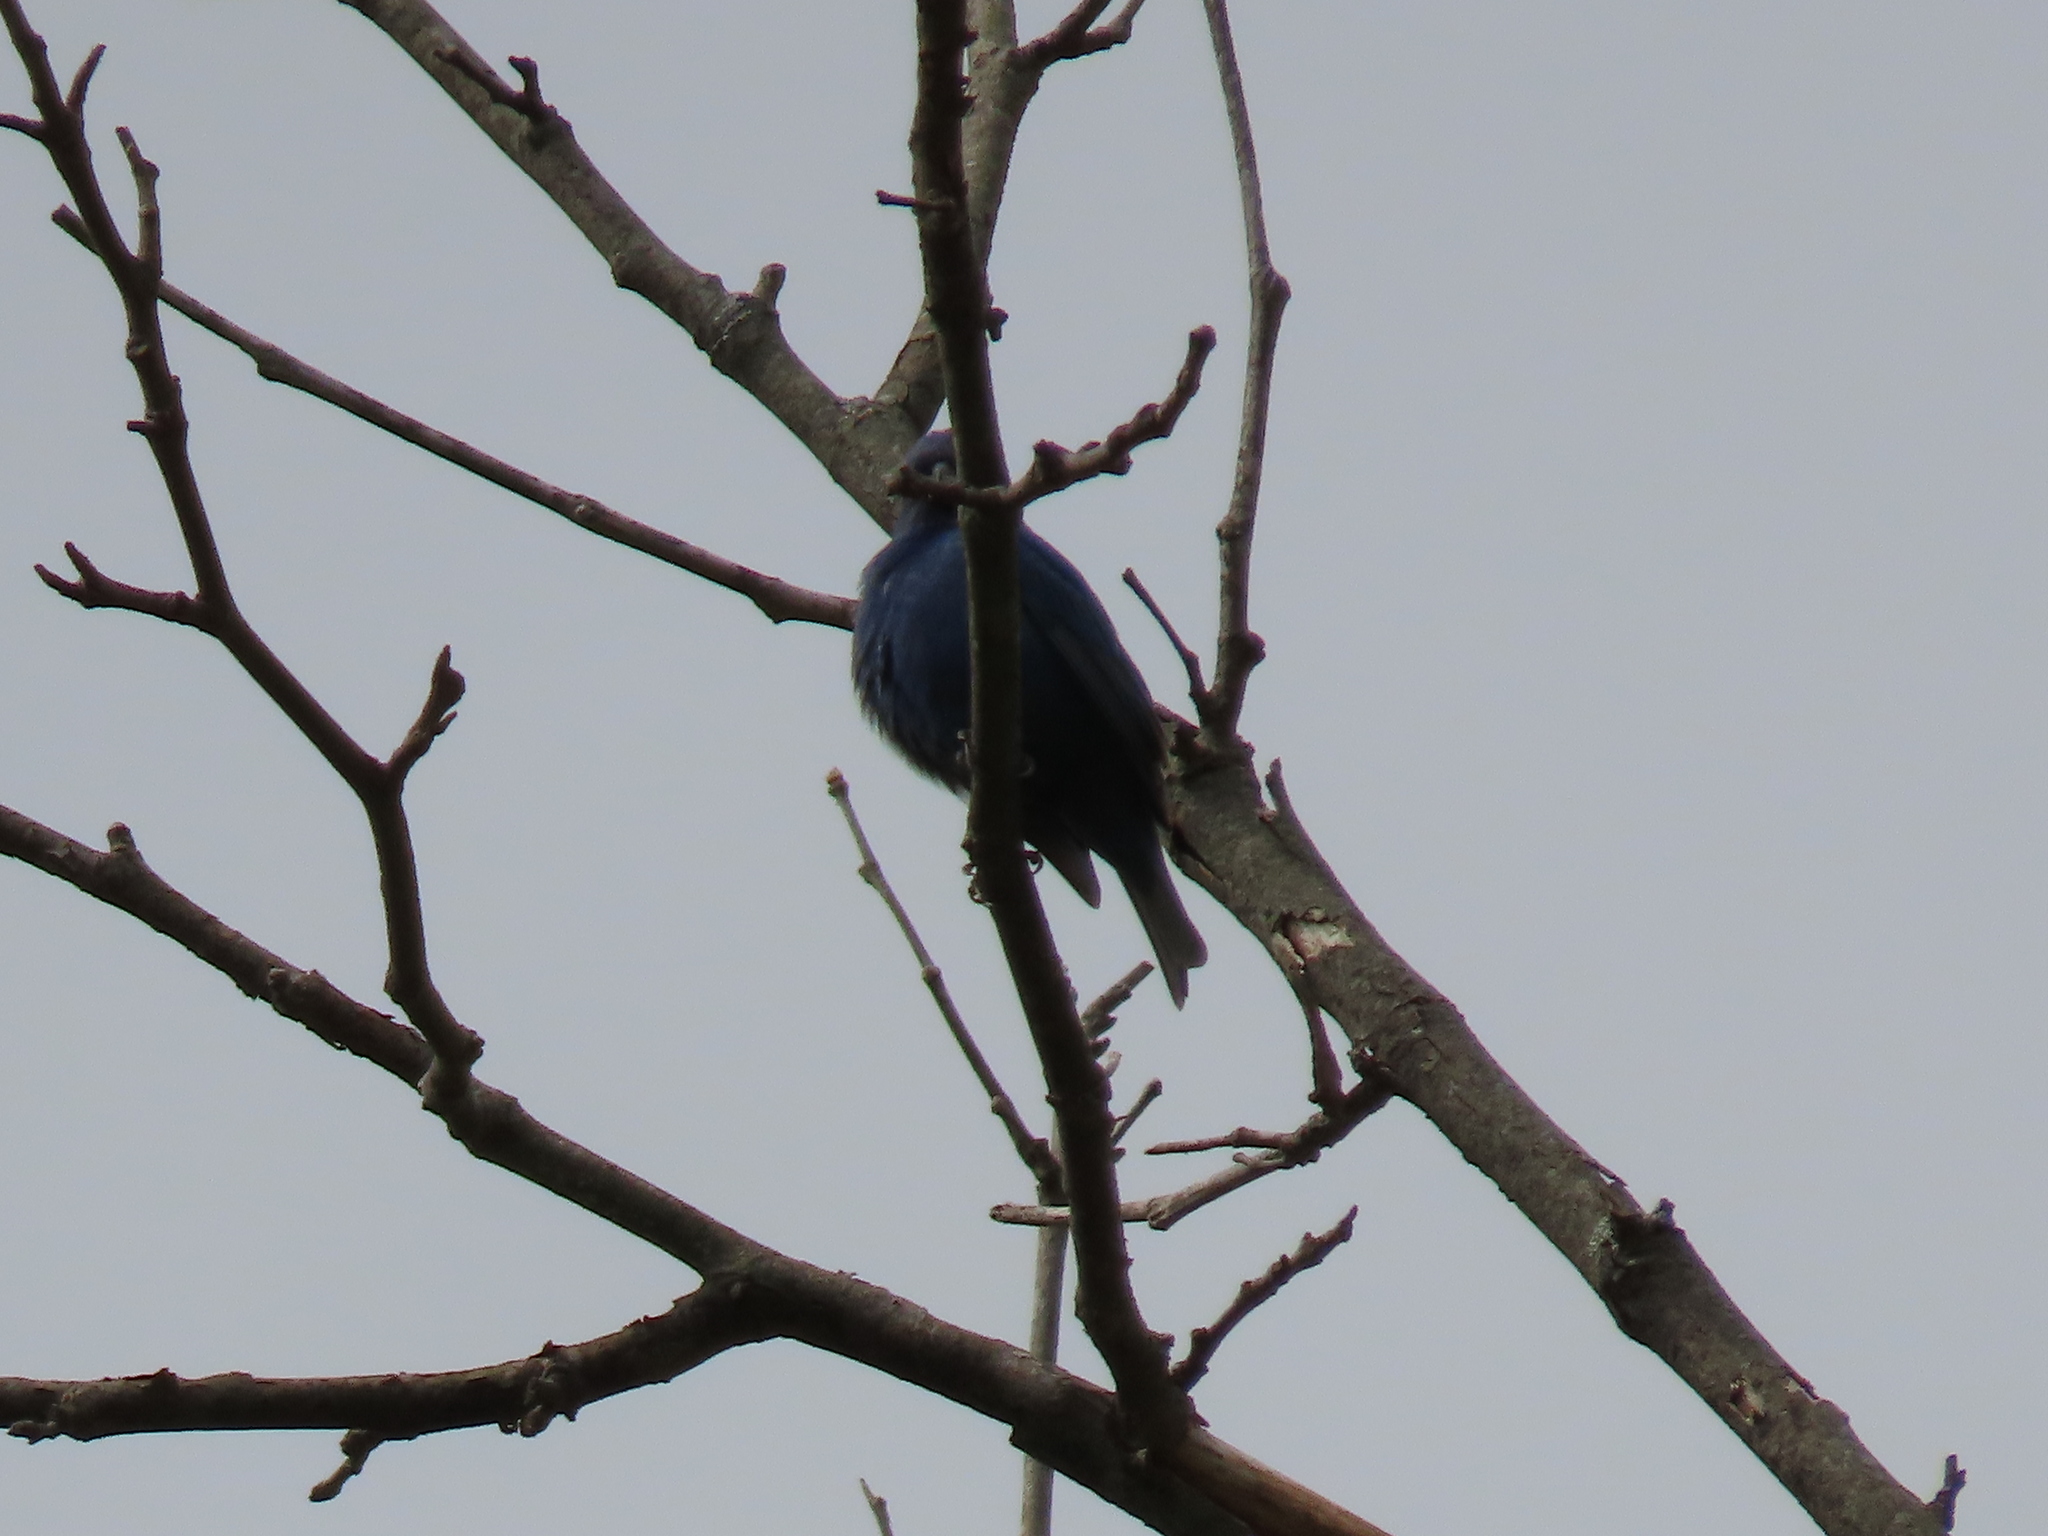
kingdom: Animalia
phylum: Chordata
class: Aves
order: Passeriformes
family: Cardinalidae
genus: Passerina
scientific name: Passerina cyanea
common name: Indigo bunting
